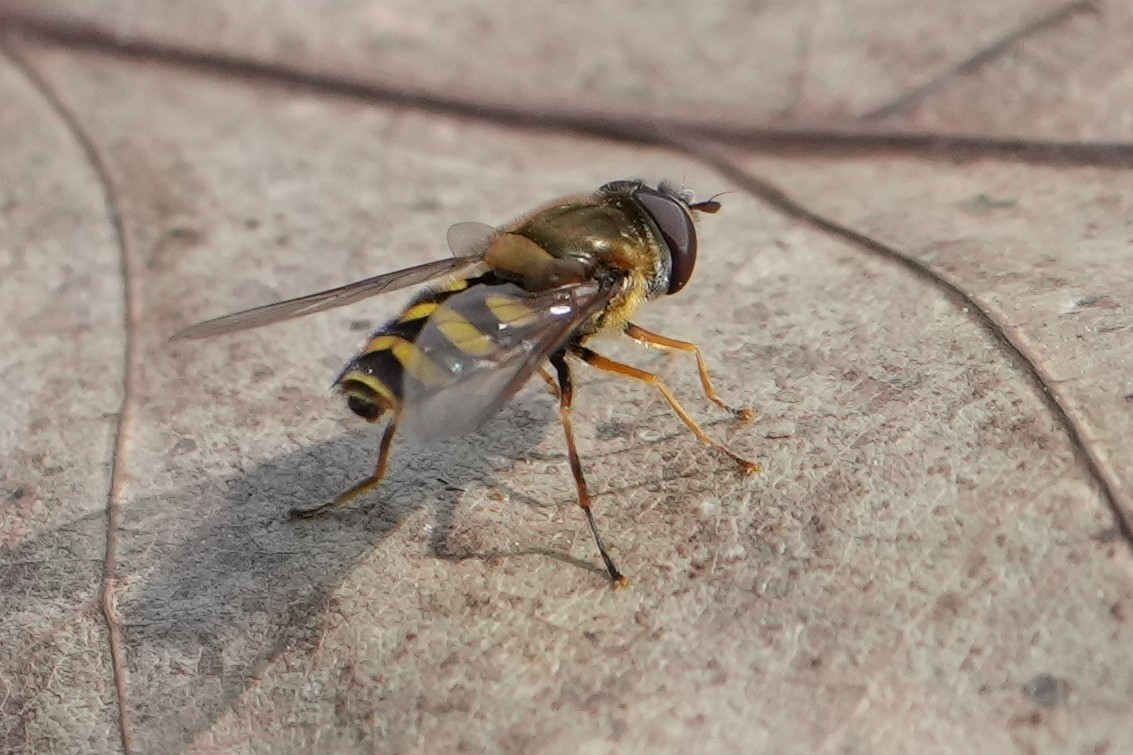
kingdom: Animalia
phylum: Arthropoda
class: Insecta
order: Diptera
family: Syrphidae
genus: Syrphus
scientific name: Syrphus
